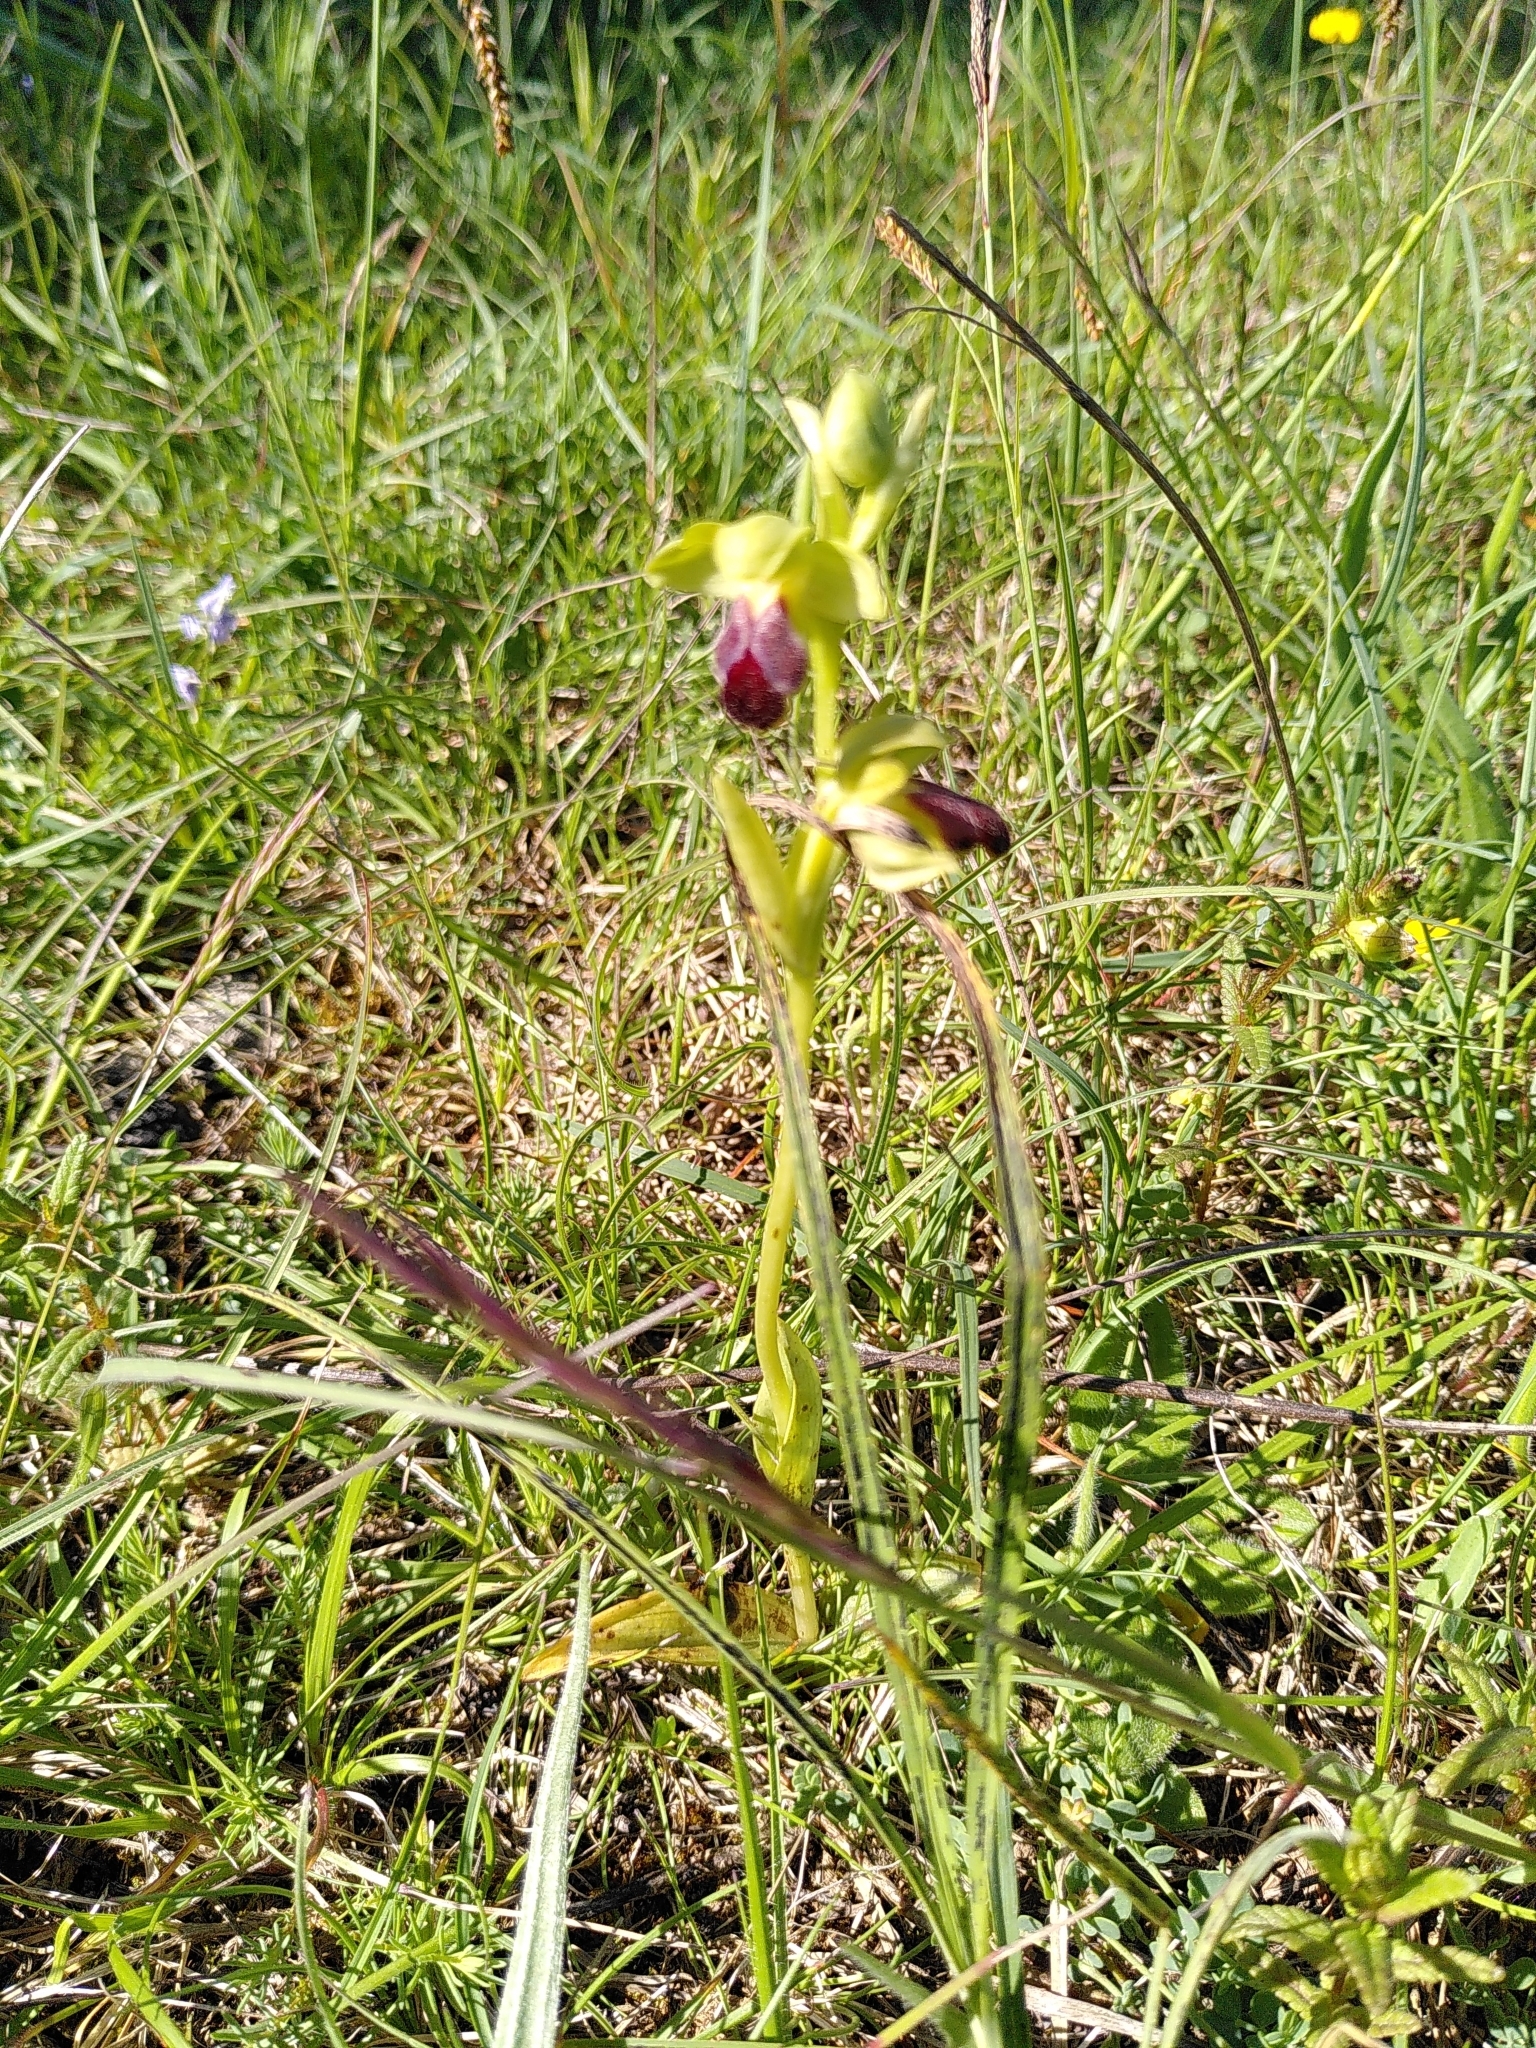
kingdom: Plantae
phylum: Tracheophyta
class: Liliopsida
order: Asparagales
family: Orchidaceae
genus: Ophrys
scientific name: Ophrys fusca
